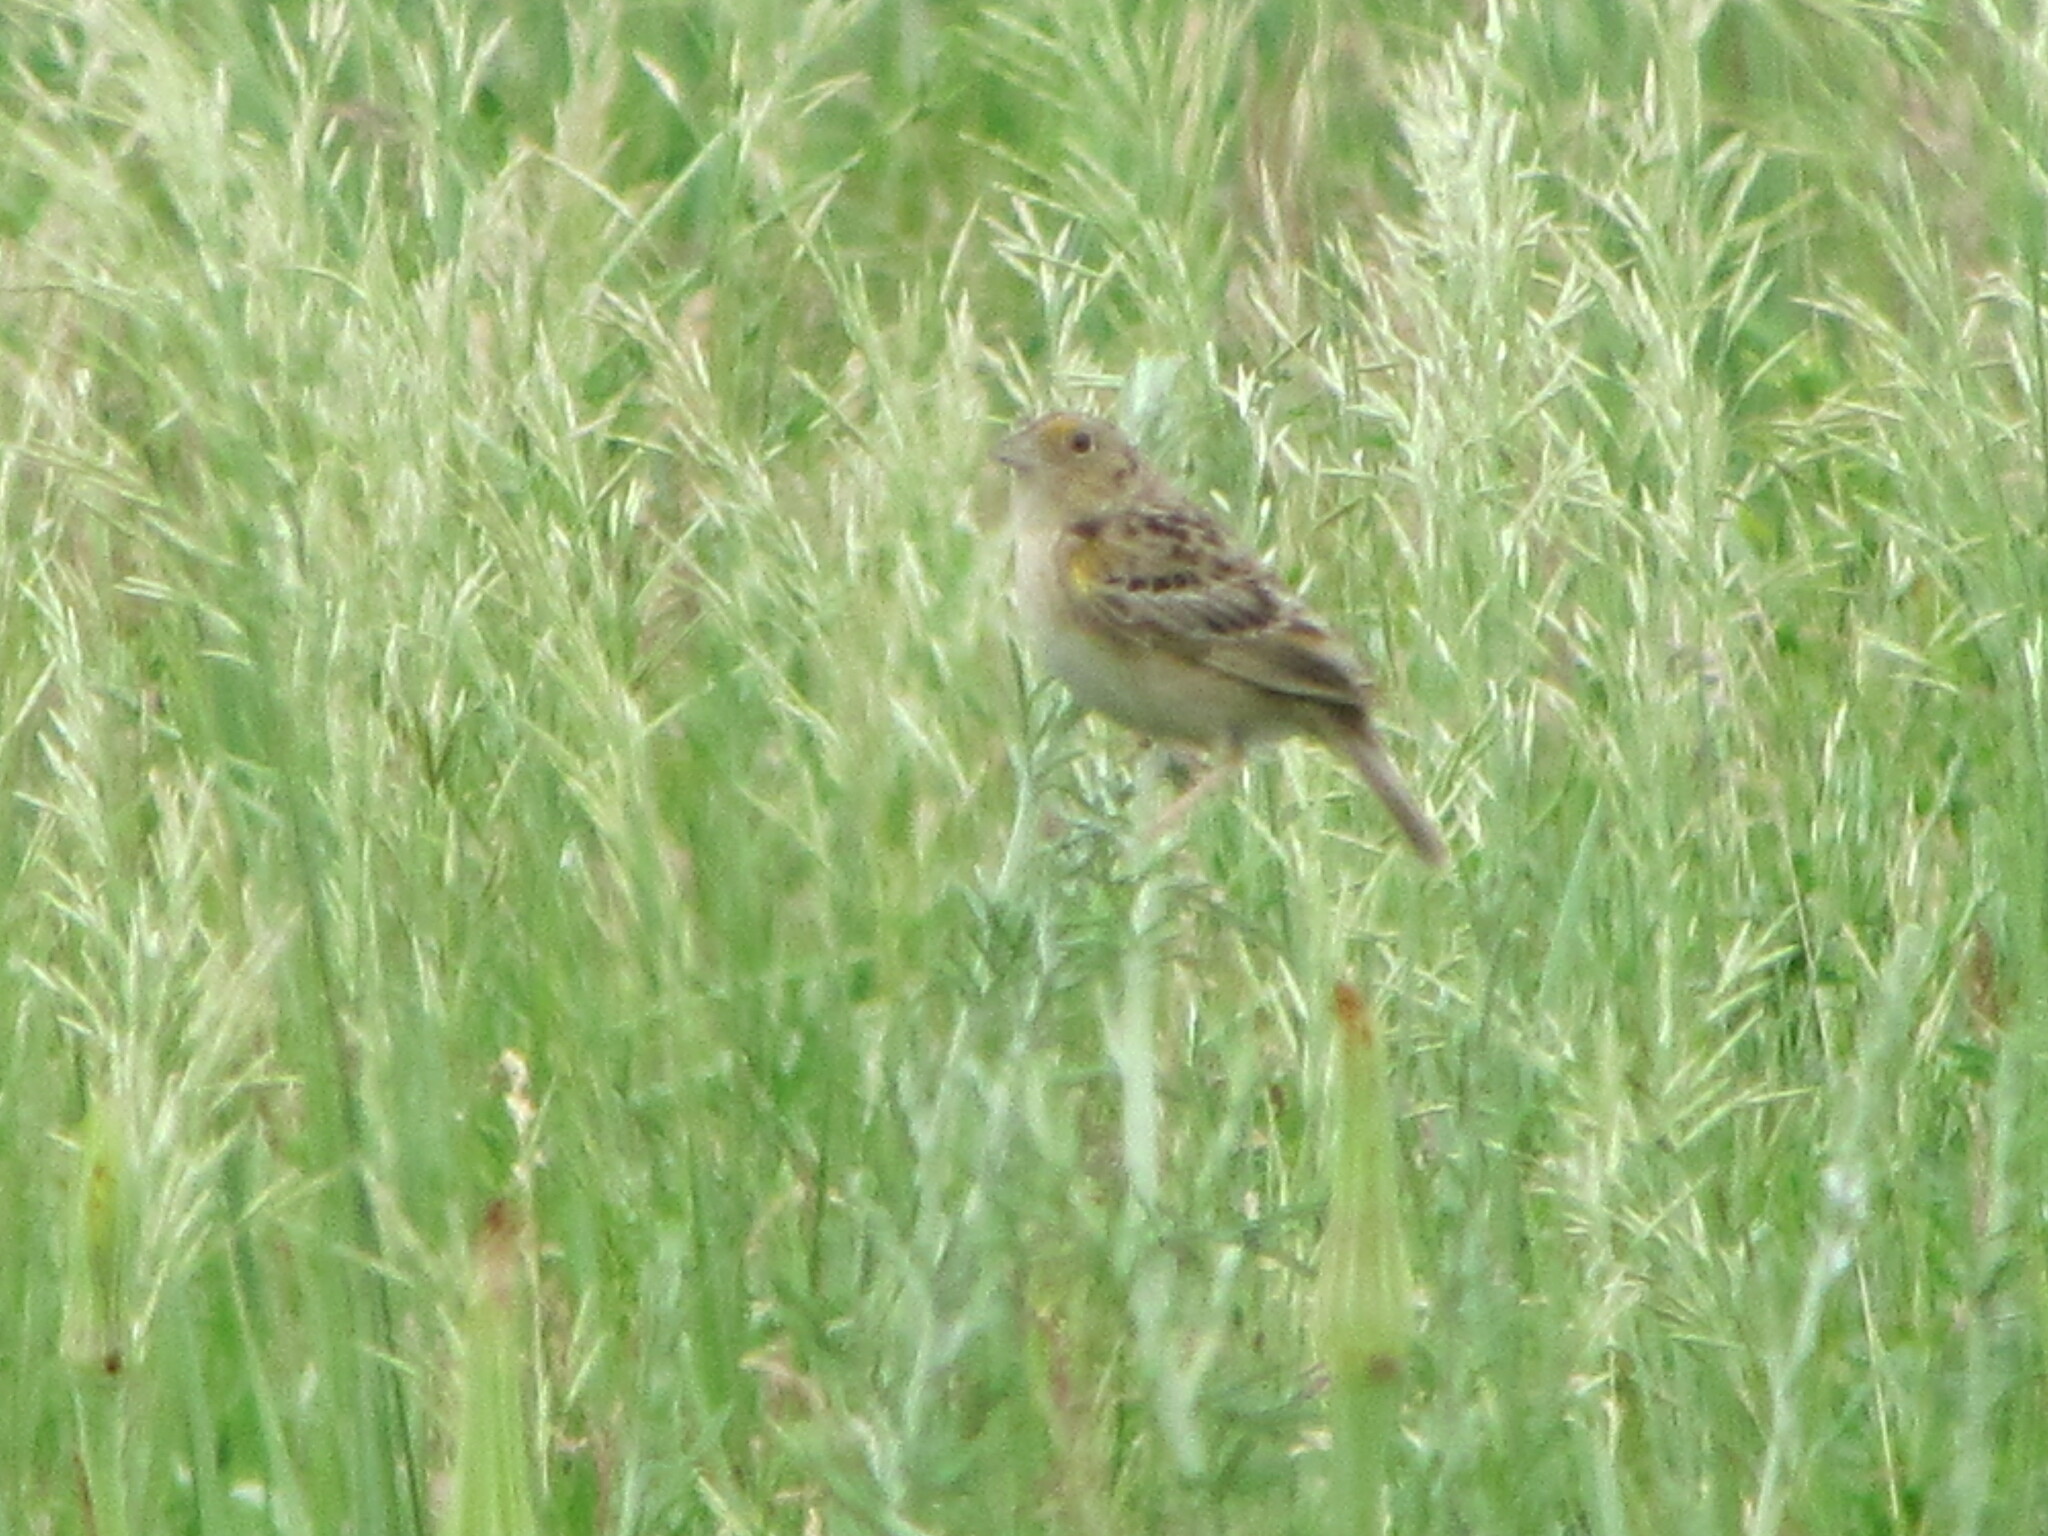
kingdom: Animalia
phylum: Chordata
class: Aves
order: Passeriformes
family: Passerellidae
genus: Ammodramus
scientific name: Ammodramus savannarum
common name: Grasshopper sparrow
